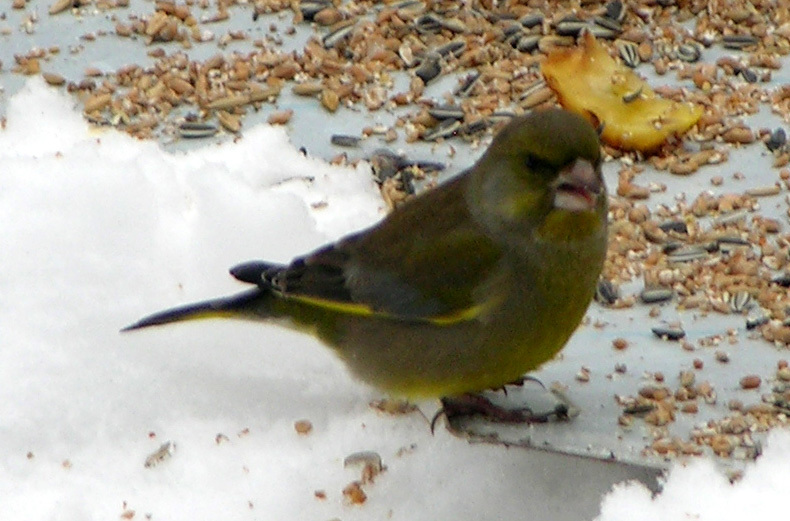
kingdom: Plantae
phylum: Tracheophyta
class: Liliopsida
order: Poales
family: Poaceae
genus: Chloris
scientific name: Chloris chloris
